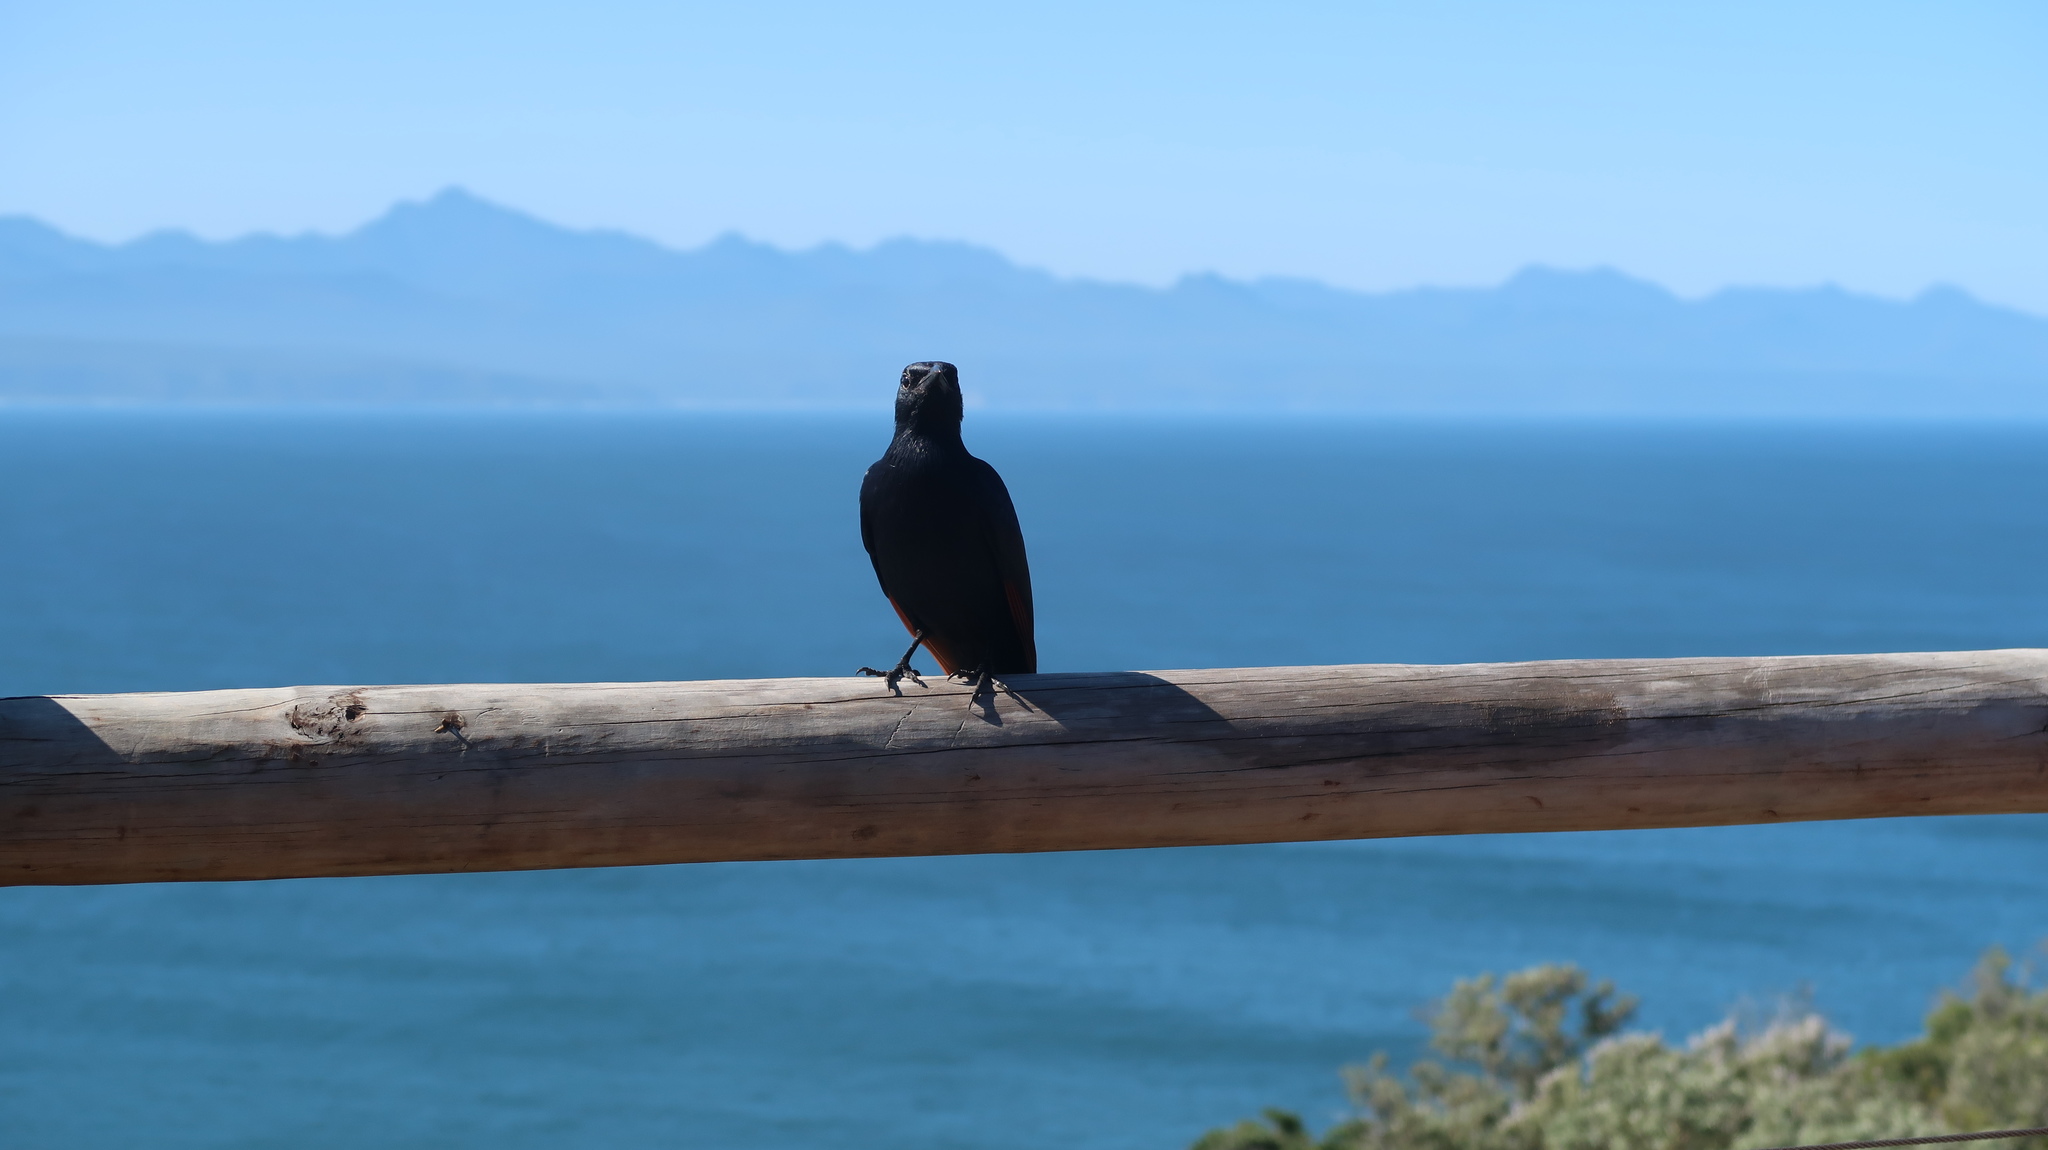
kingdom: Animalia
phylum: Chordata
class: Aves
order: Passeriformes
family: Sturnidae
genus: Onychognathus
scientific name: Onychognathus morio
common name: Red-winged starling
